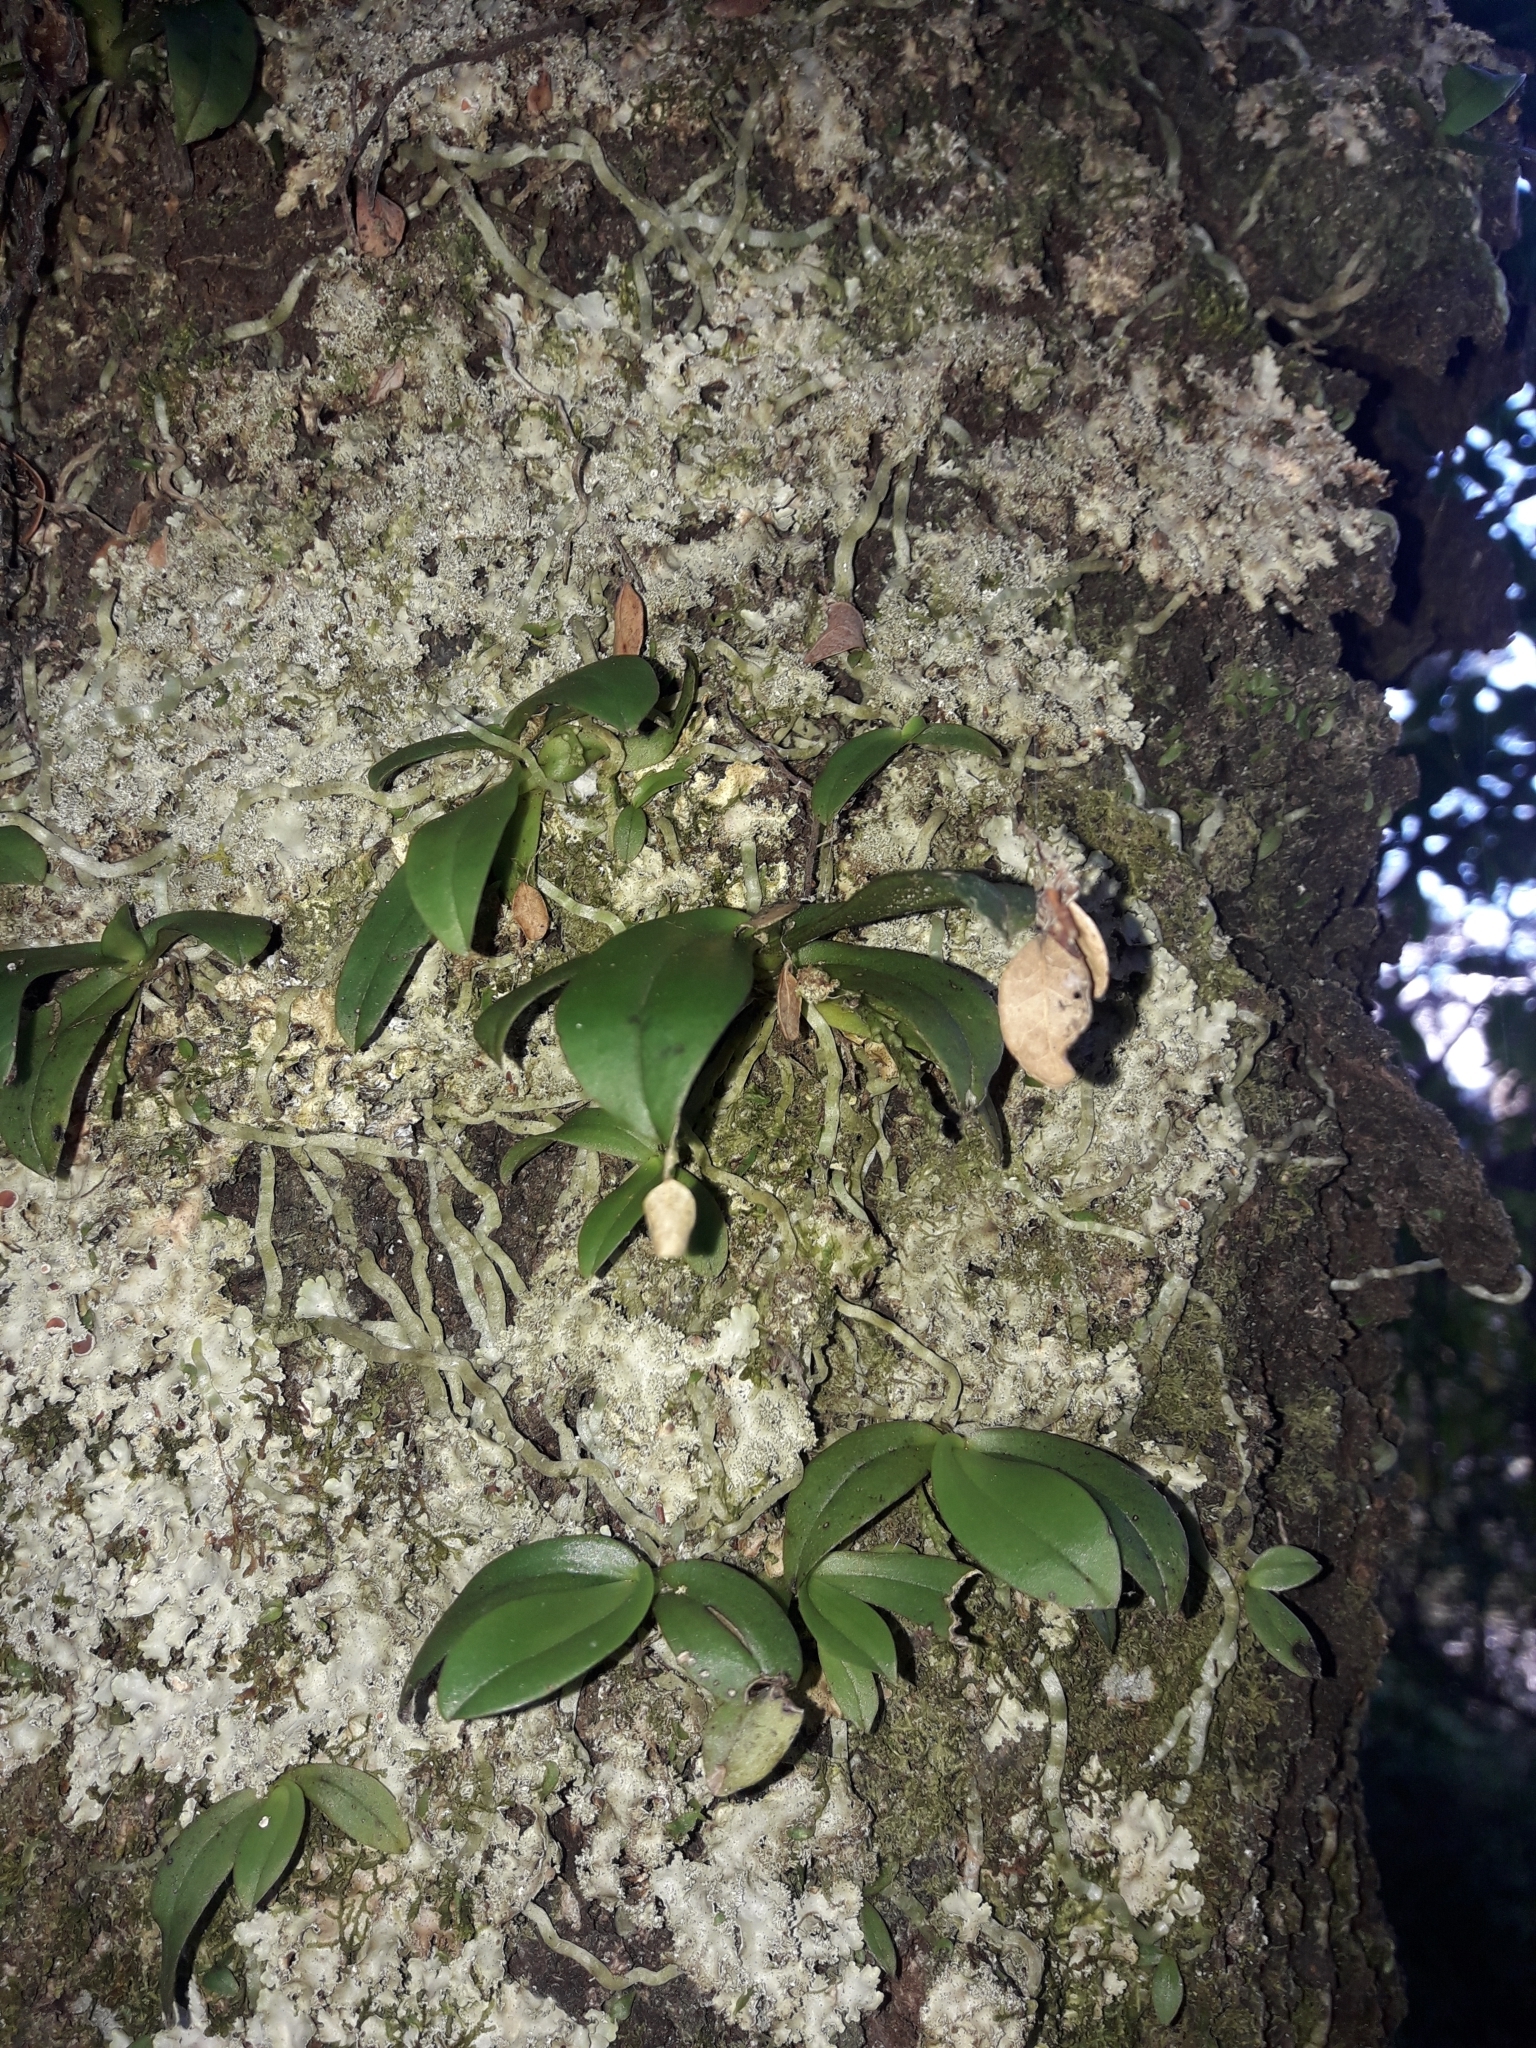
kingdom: Plantae
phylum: Tracheophyta
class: Liliopsida
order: Asparagales
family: Orchidaceae
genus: Drymoanthus
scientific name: Drymoanthus adversus
